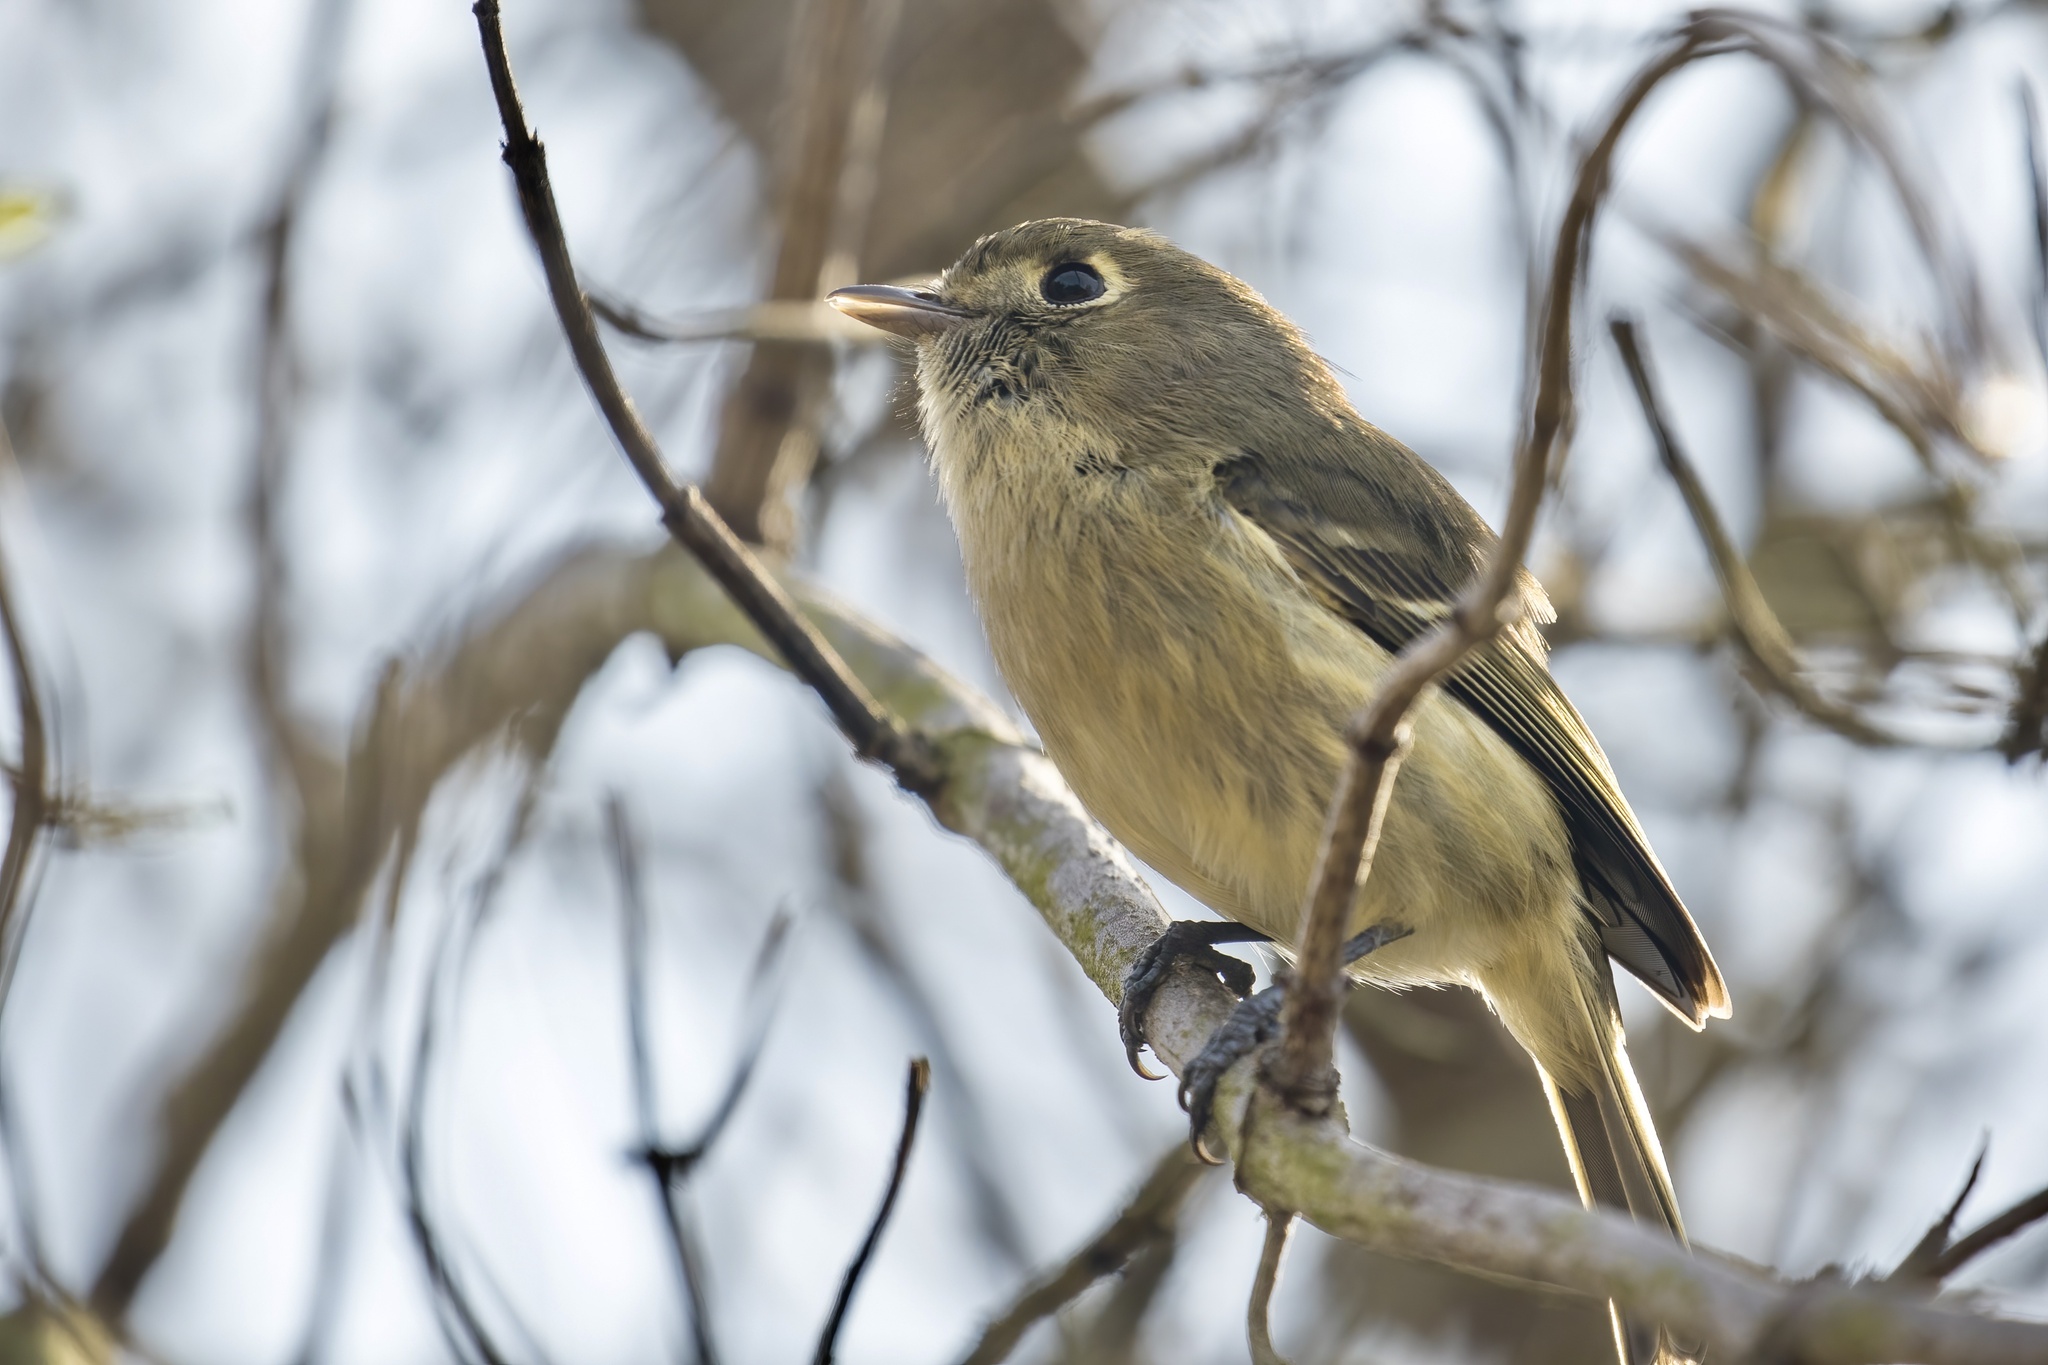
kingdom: Animalia
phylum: Chordata
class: Aves
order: Passeriformes
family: Vireonidae
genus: Vireo
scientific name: Vireo huttoni
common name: Hutton's vireo
